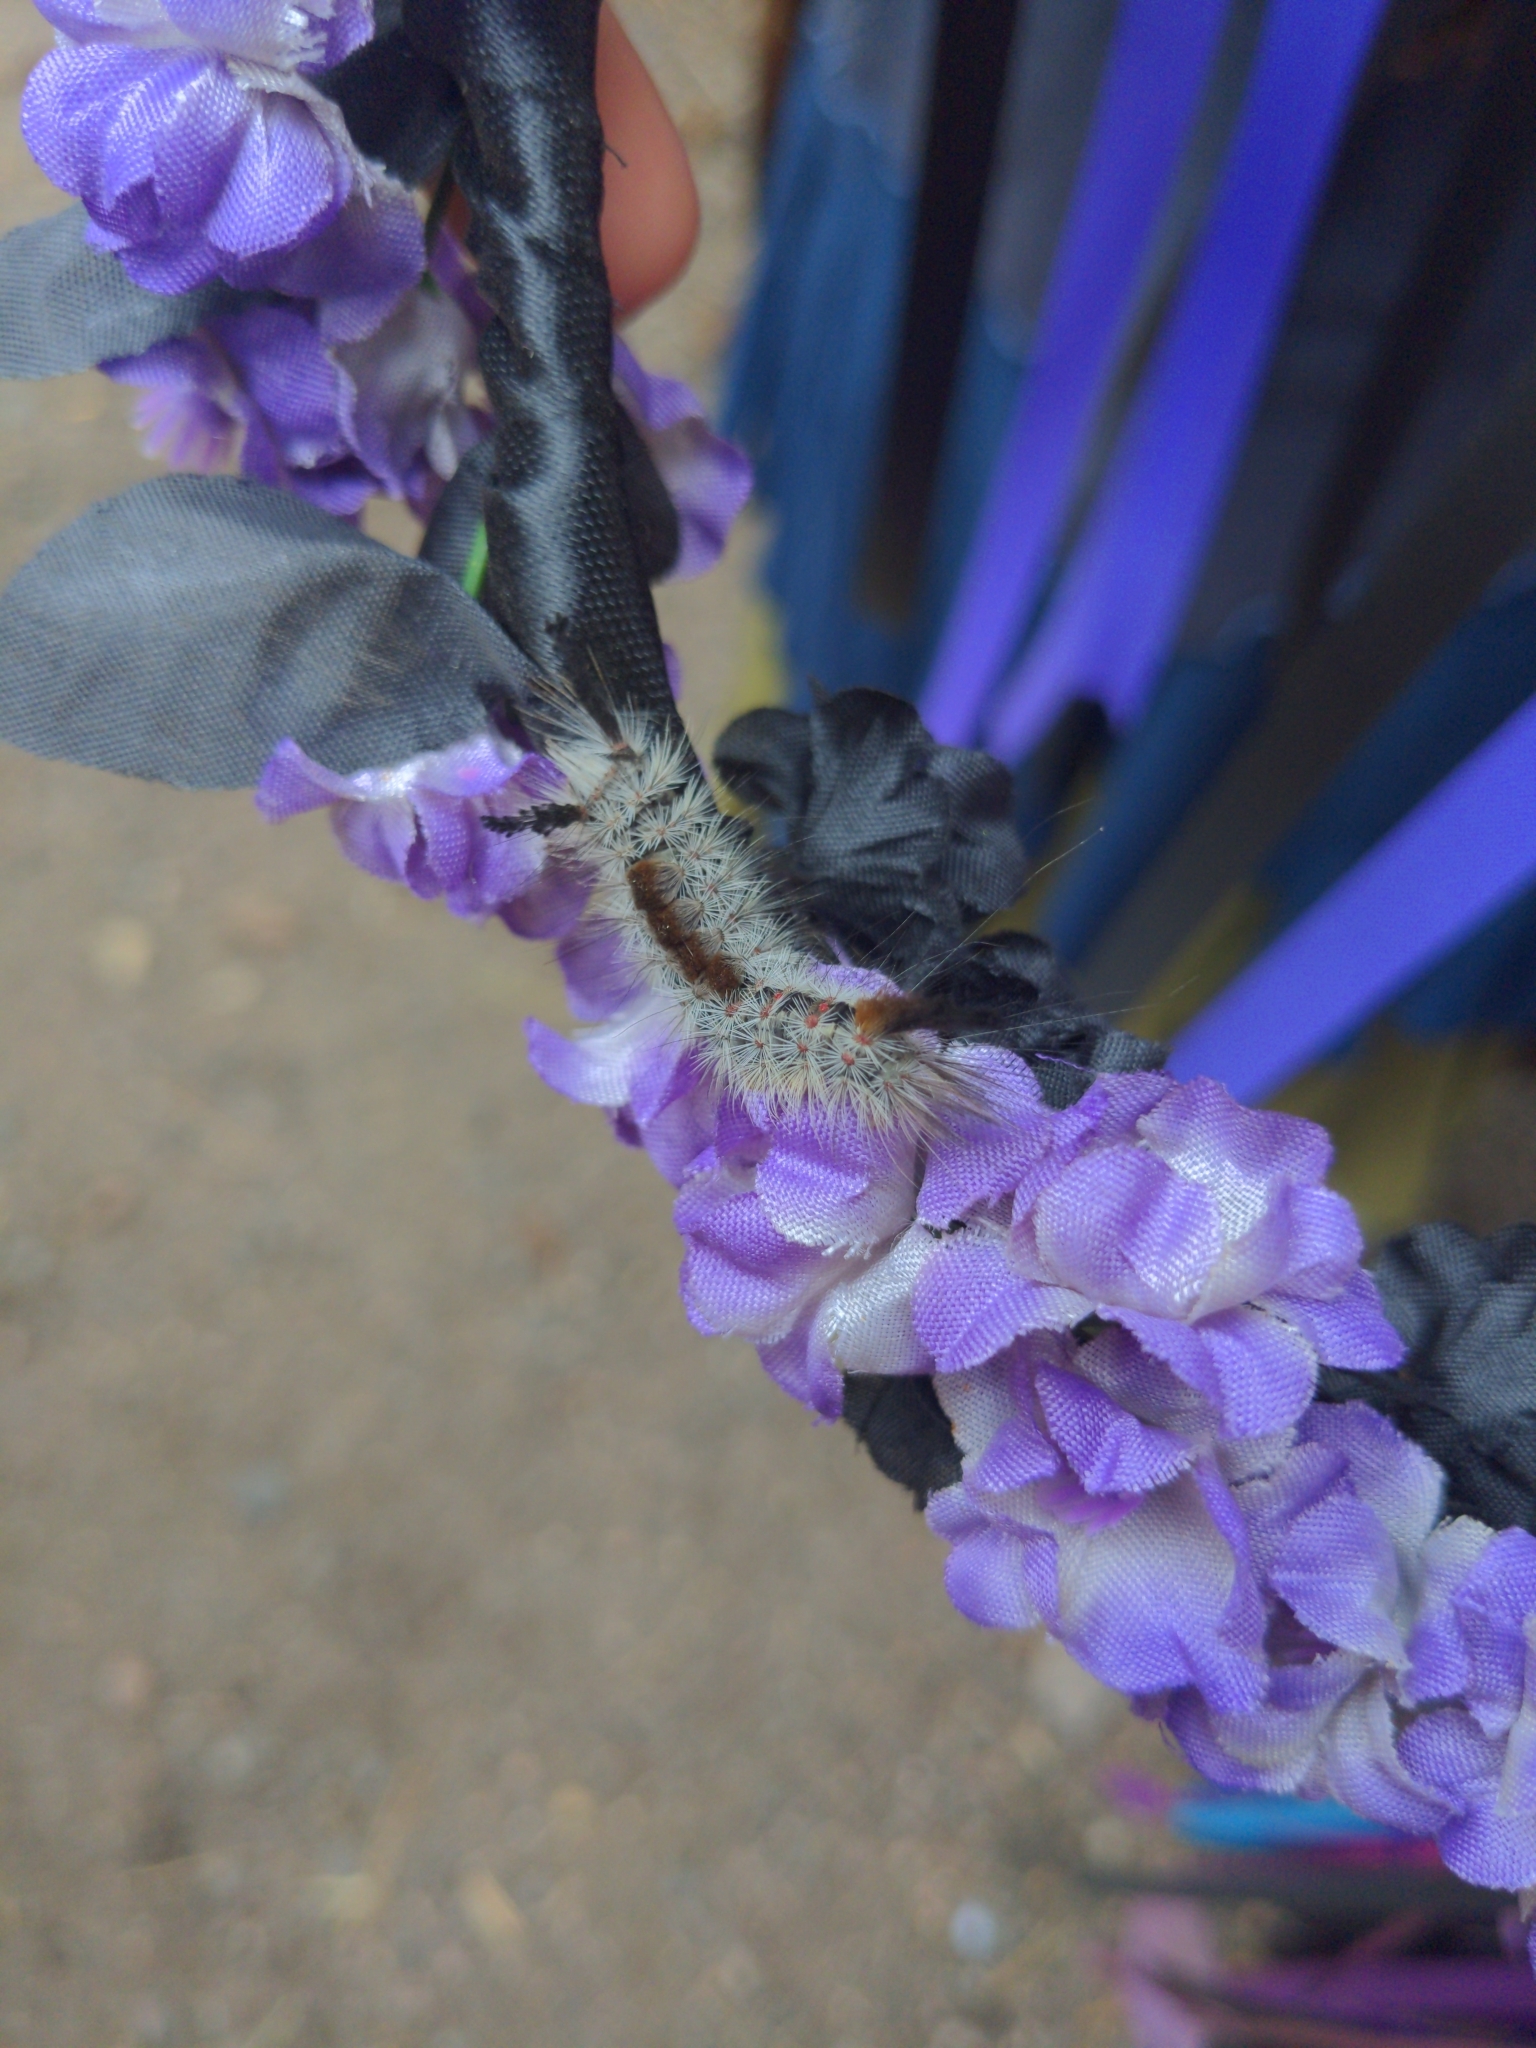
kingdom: Animalia
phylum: Arthropoda
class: Insecta
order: Lepidoptera
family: Erebidae
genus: Orgyia
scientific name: Orgyia pseudotsugata
